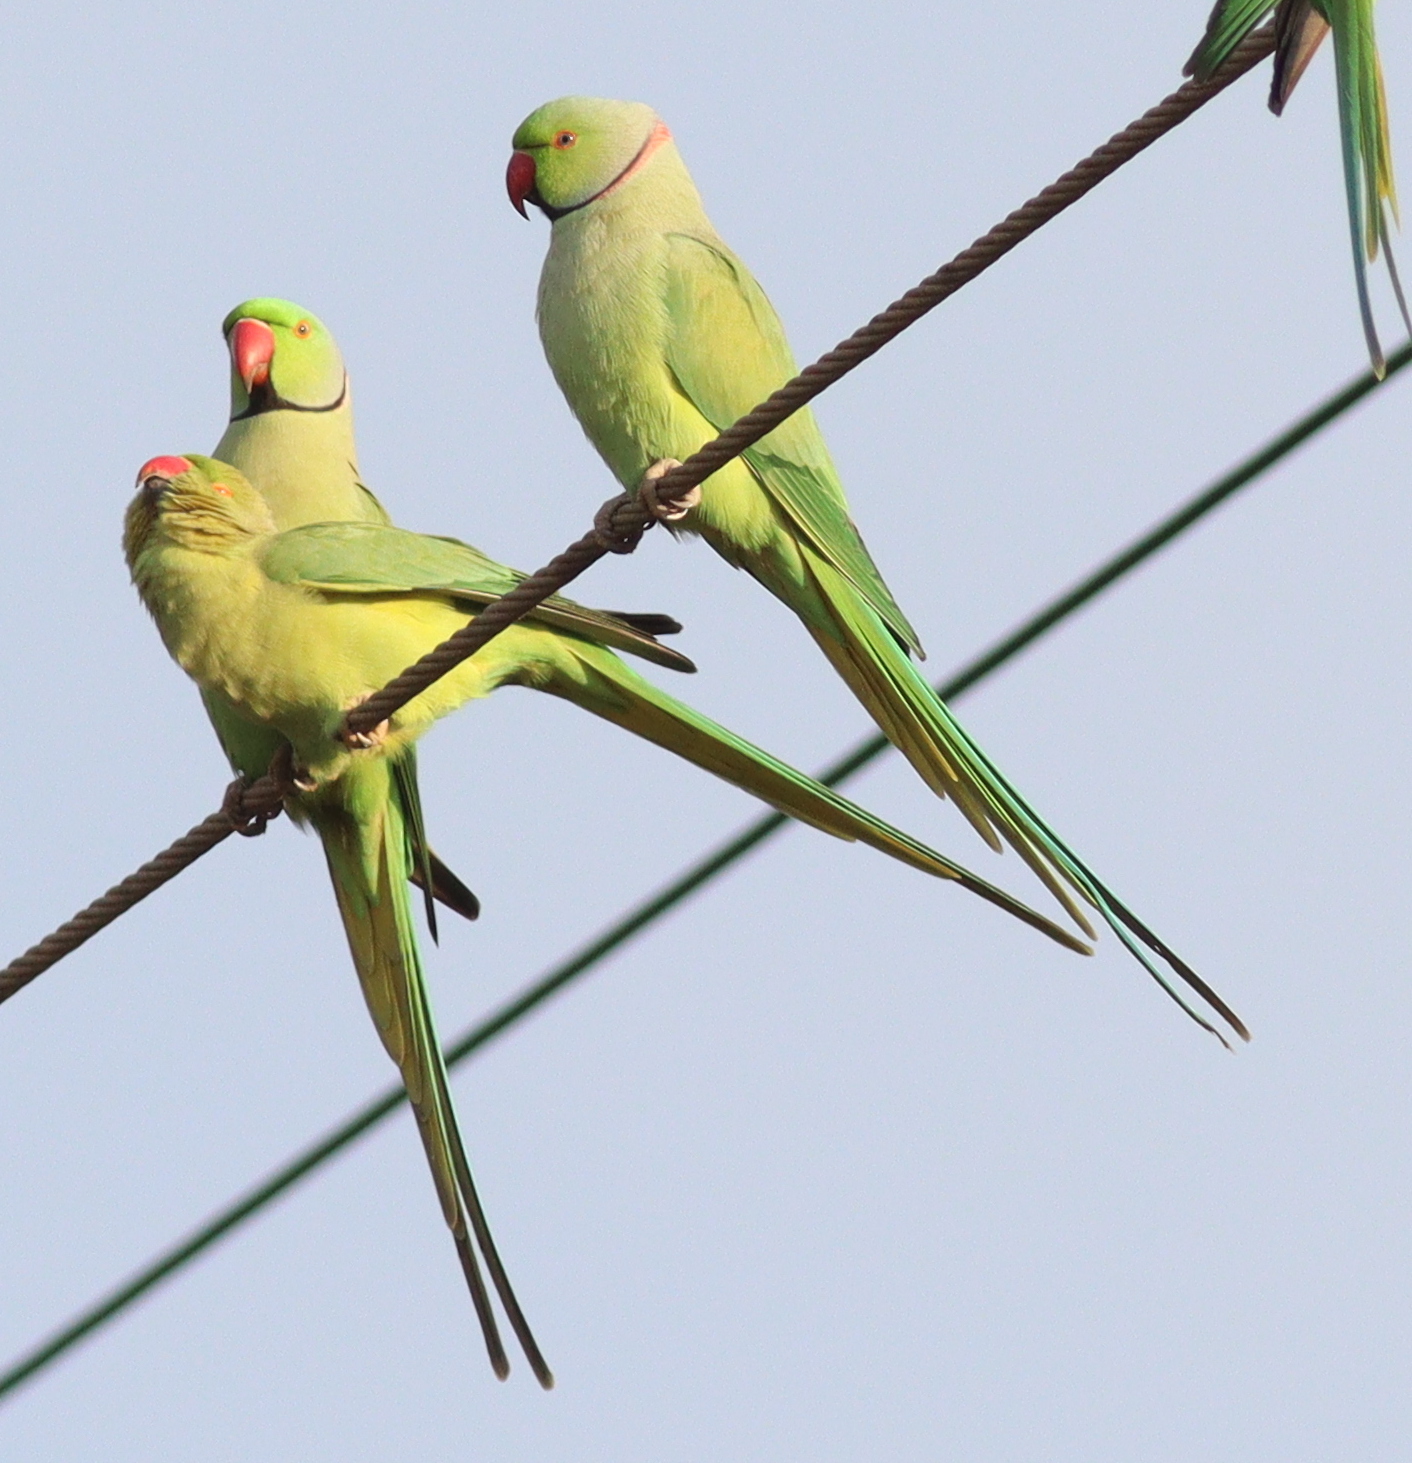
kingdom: Animalia
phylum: Chordata
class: Aves
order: Psittaciformes
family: Psittacidae
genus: Psittacula
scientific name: Psittacula krameri
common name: Rose-ringed parakeet
